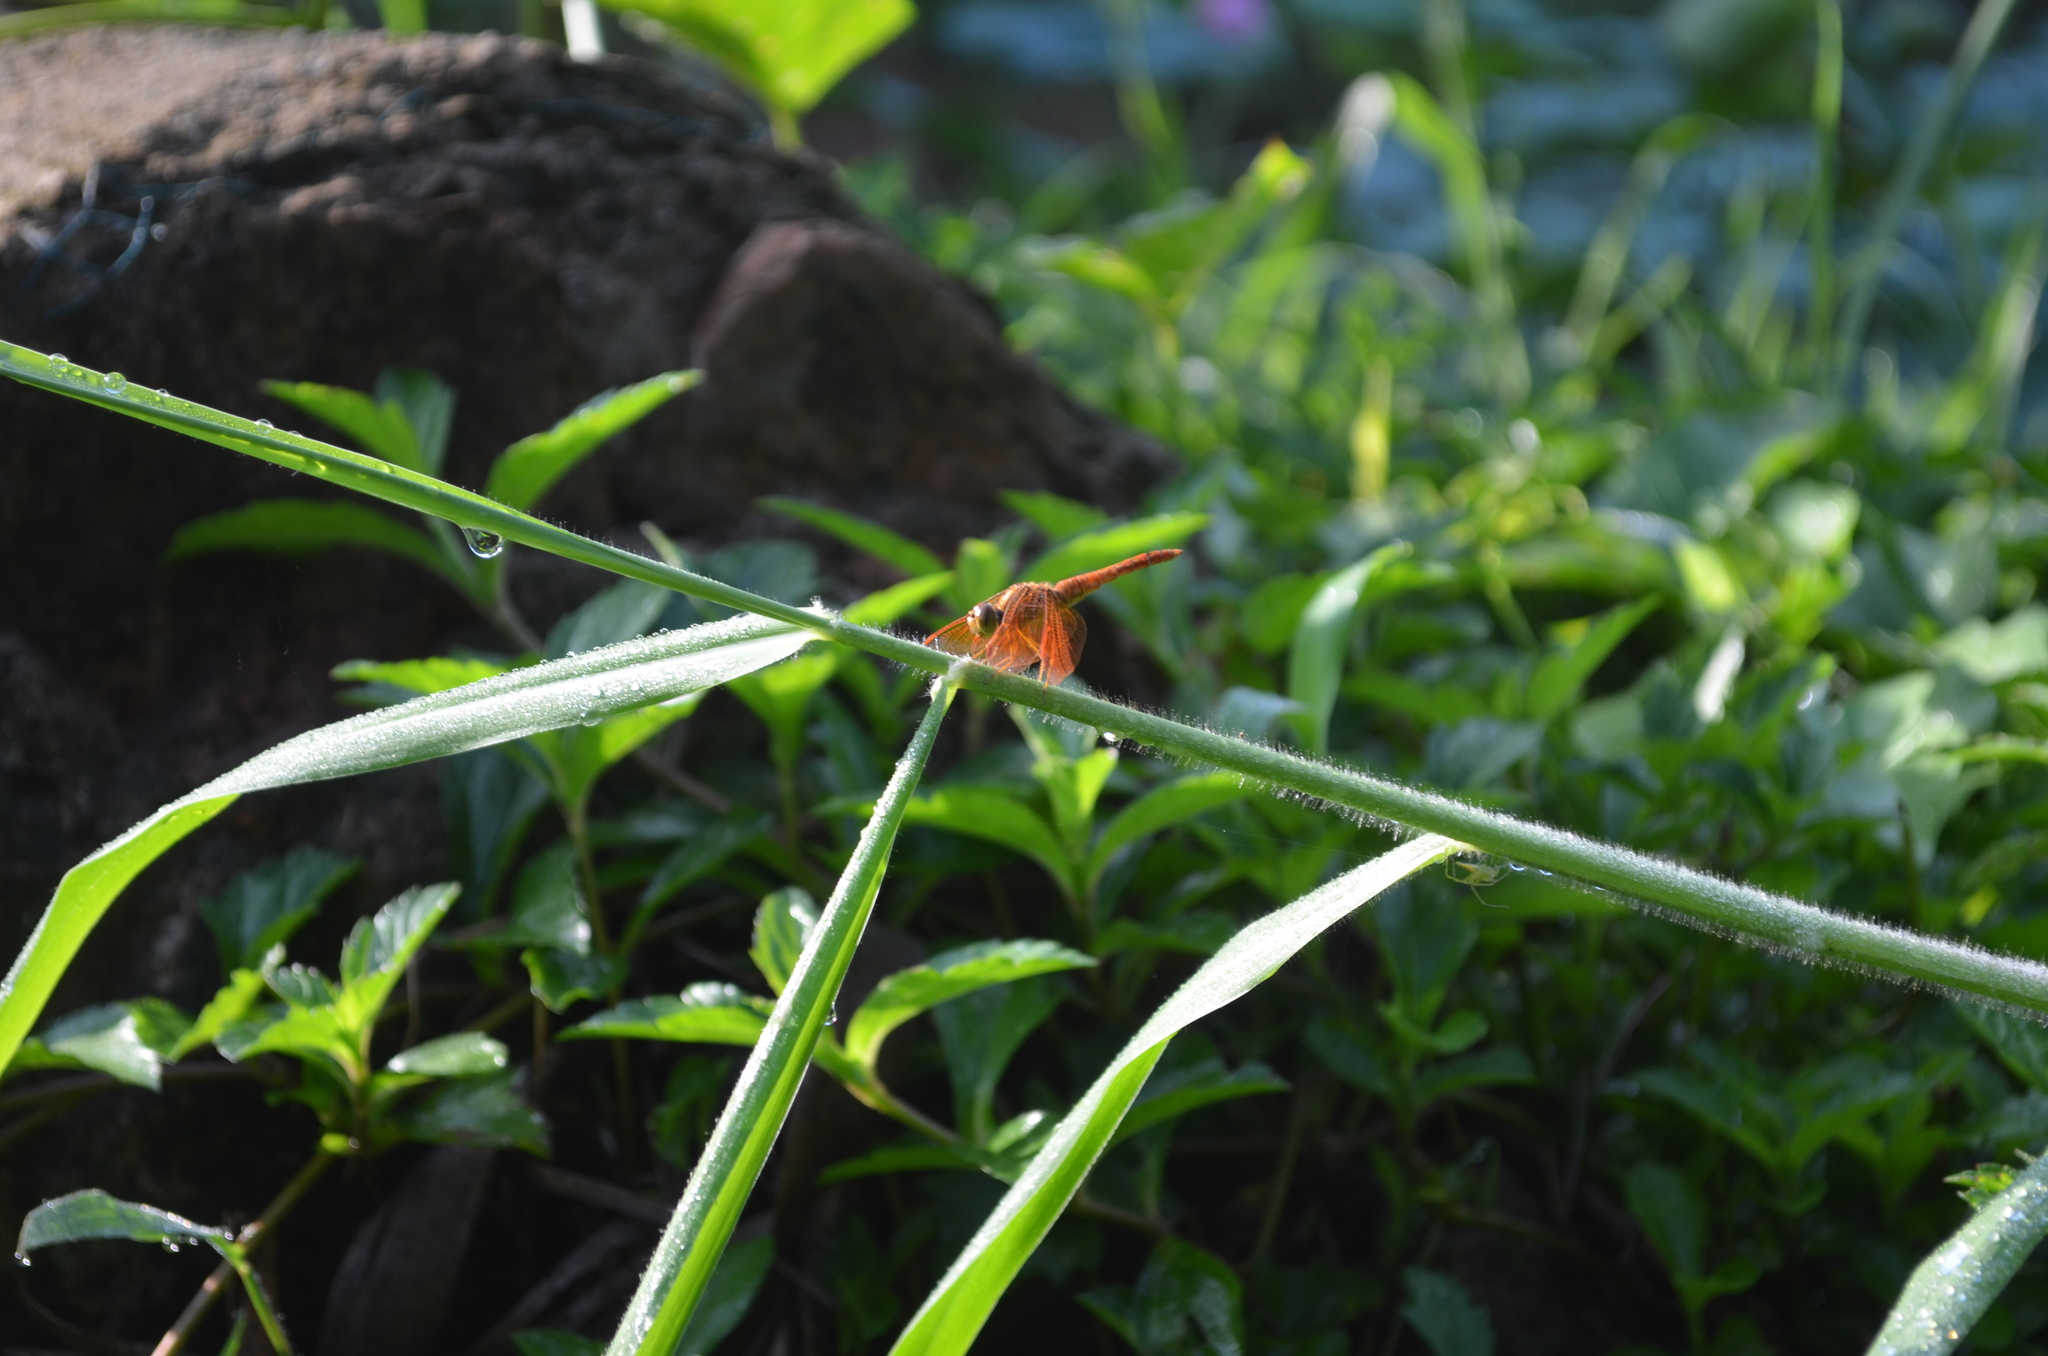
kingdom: Animalia
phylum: Arthropoda
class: Insecta
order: Odonata
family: Libellulidae
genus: Neurothemis
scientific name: Neurothemis fluctuans
